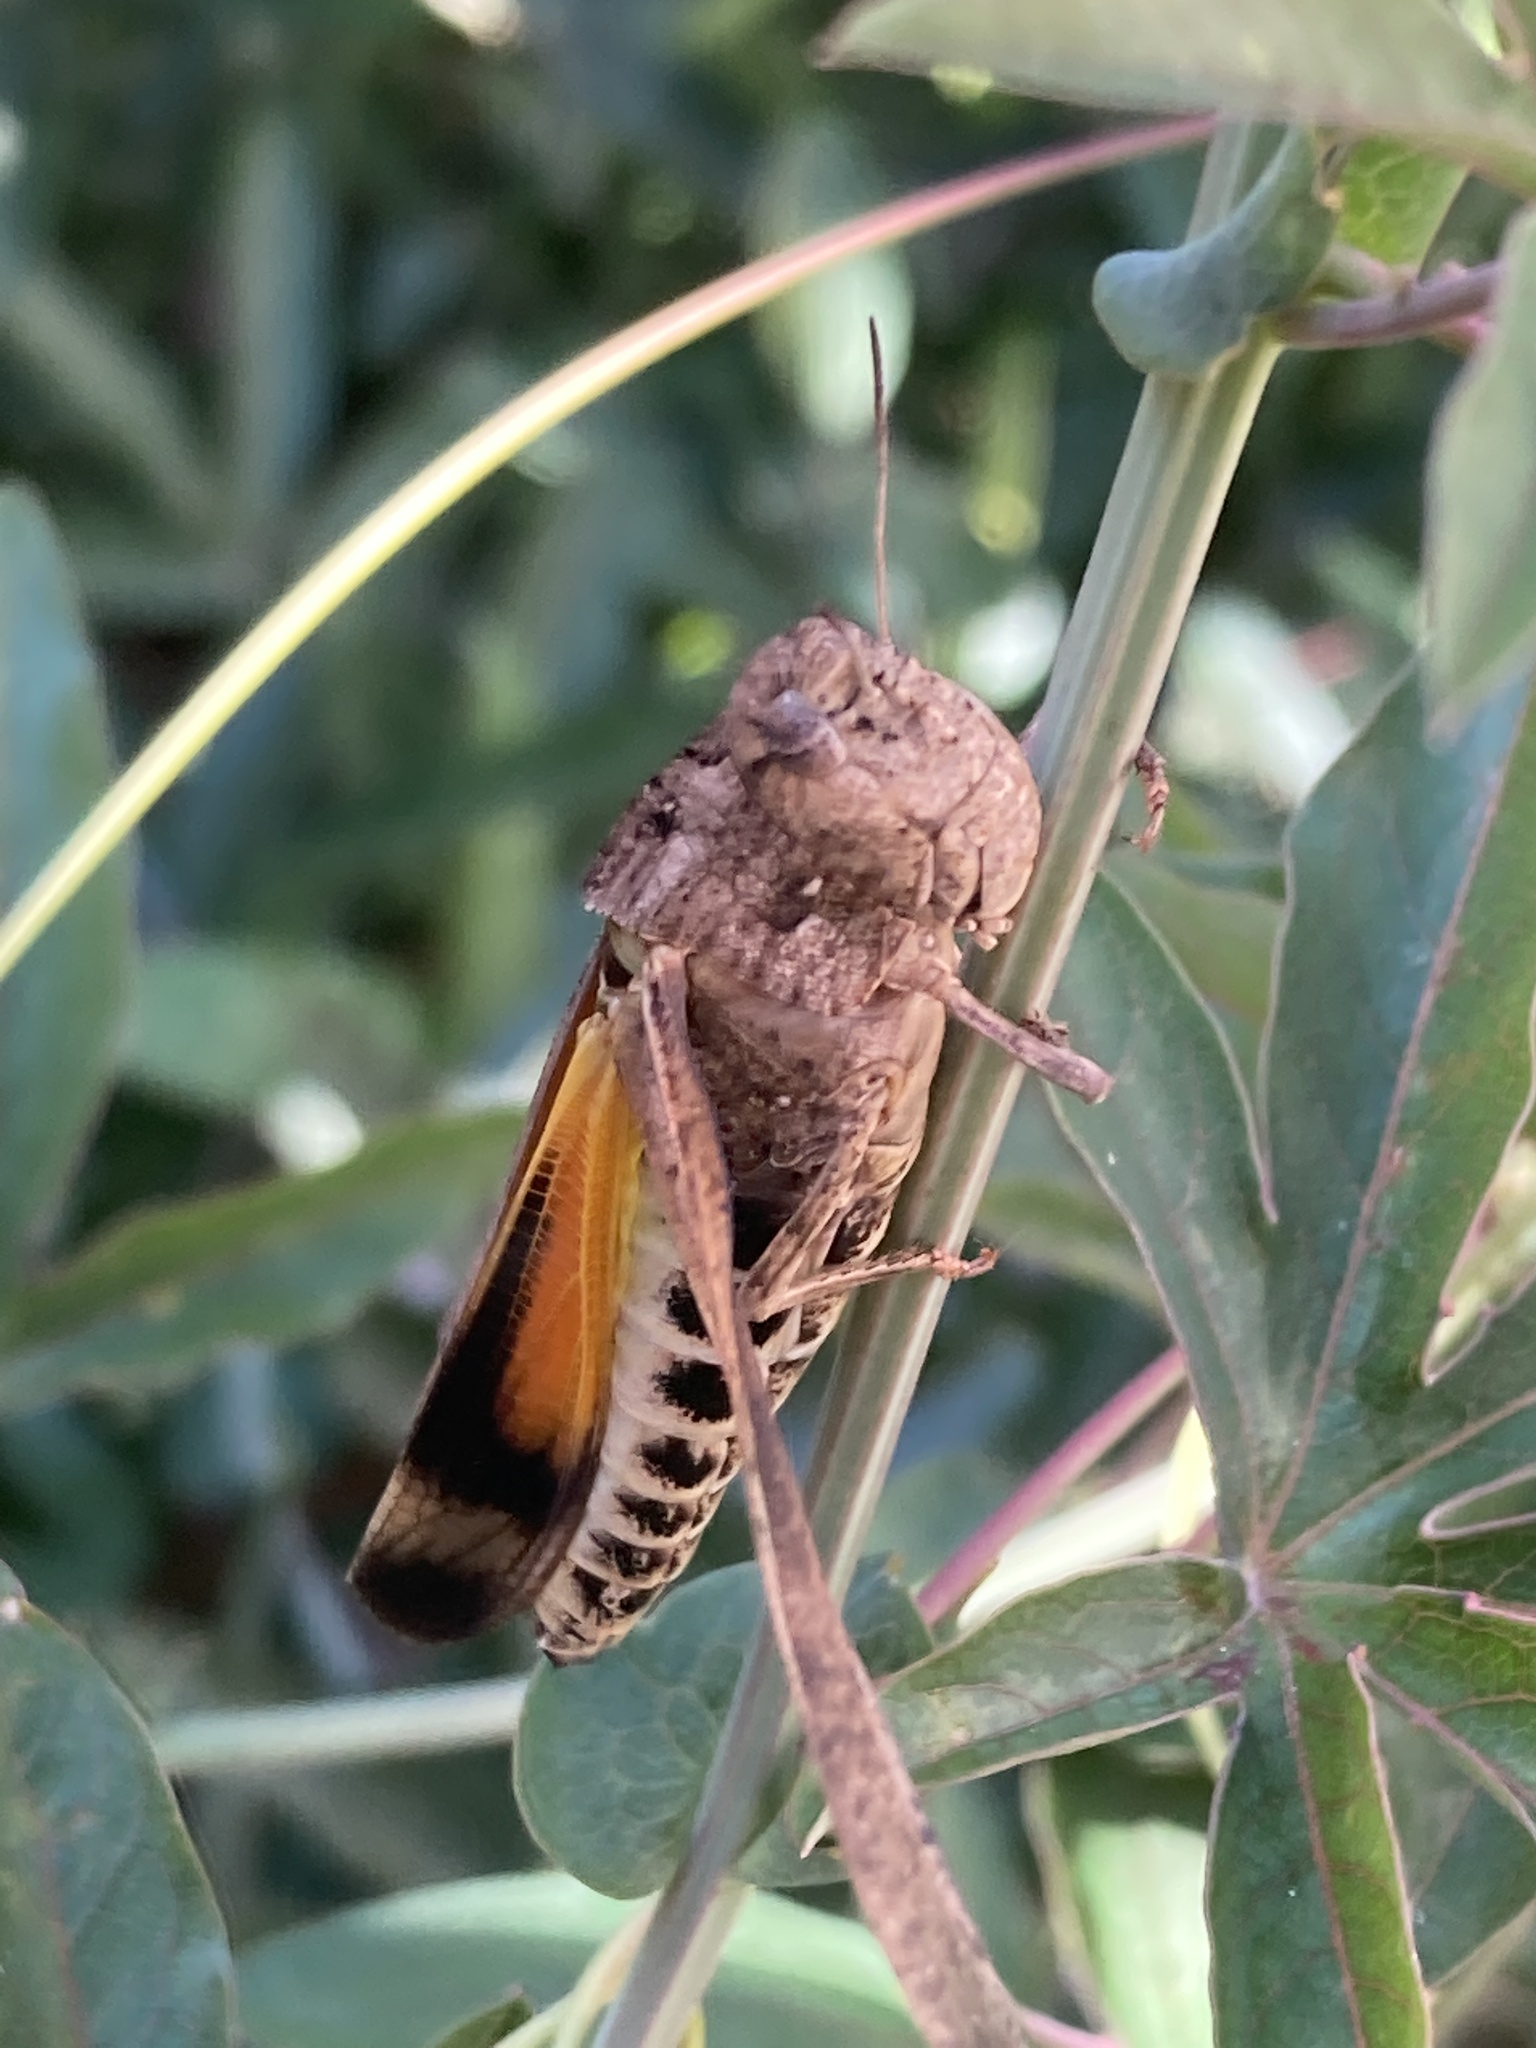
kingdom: Animalia
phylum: Arthropoda
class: Insecta
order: Orthoptera
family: Acrididae
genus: Arphia
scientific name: Arphia simplex
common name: Plains yellow-winged grasshopper
